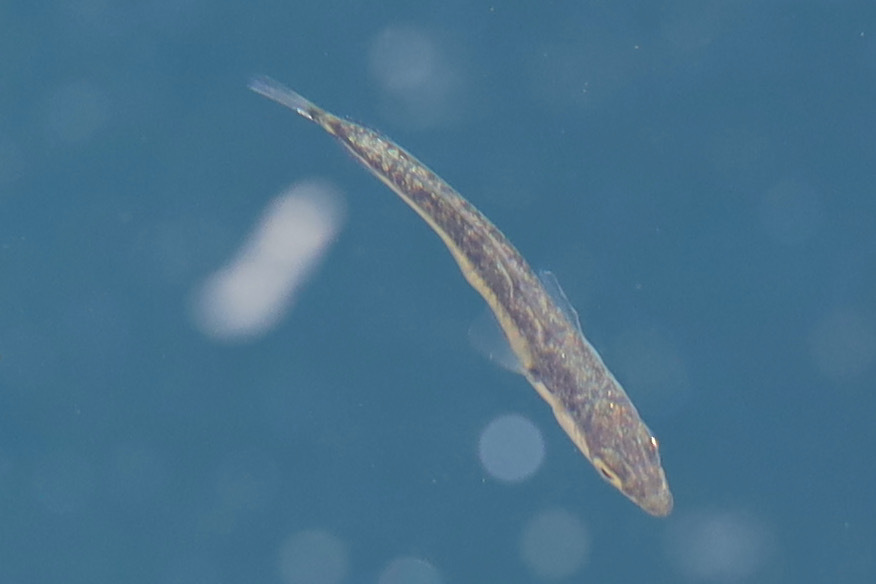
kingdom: Animalia
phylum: Chordata
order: Gasterosteiformes
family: Gasterosteidae
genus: Gasterosteus
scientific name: Gasterosteus aculeatus
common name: Three-spined stickleback
